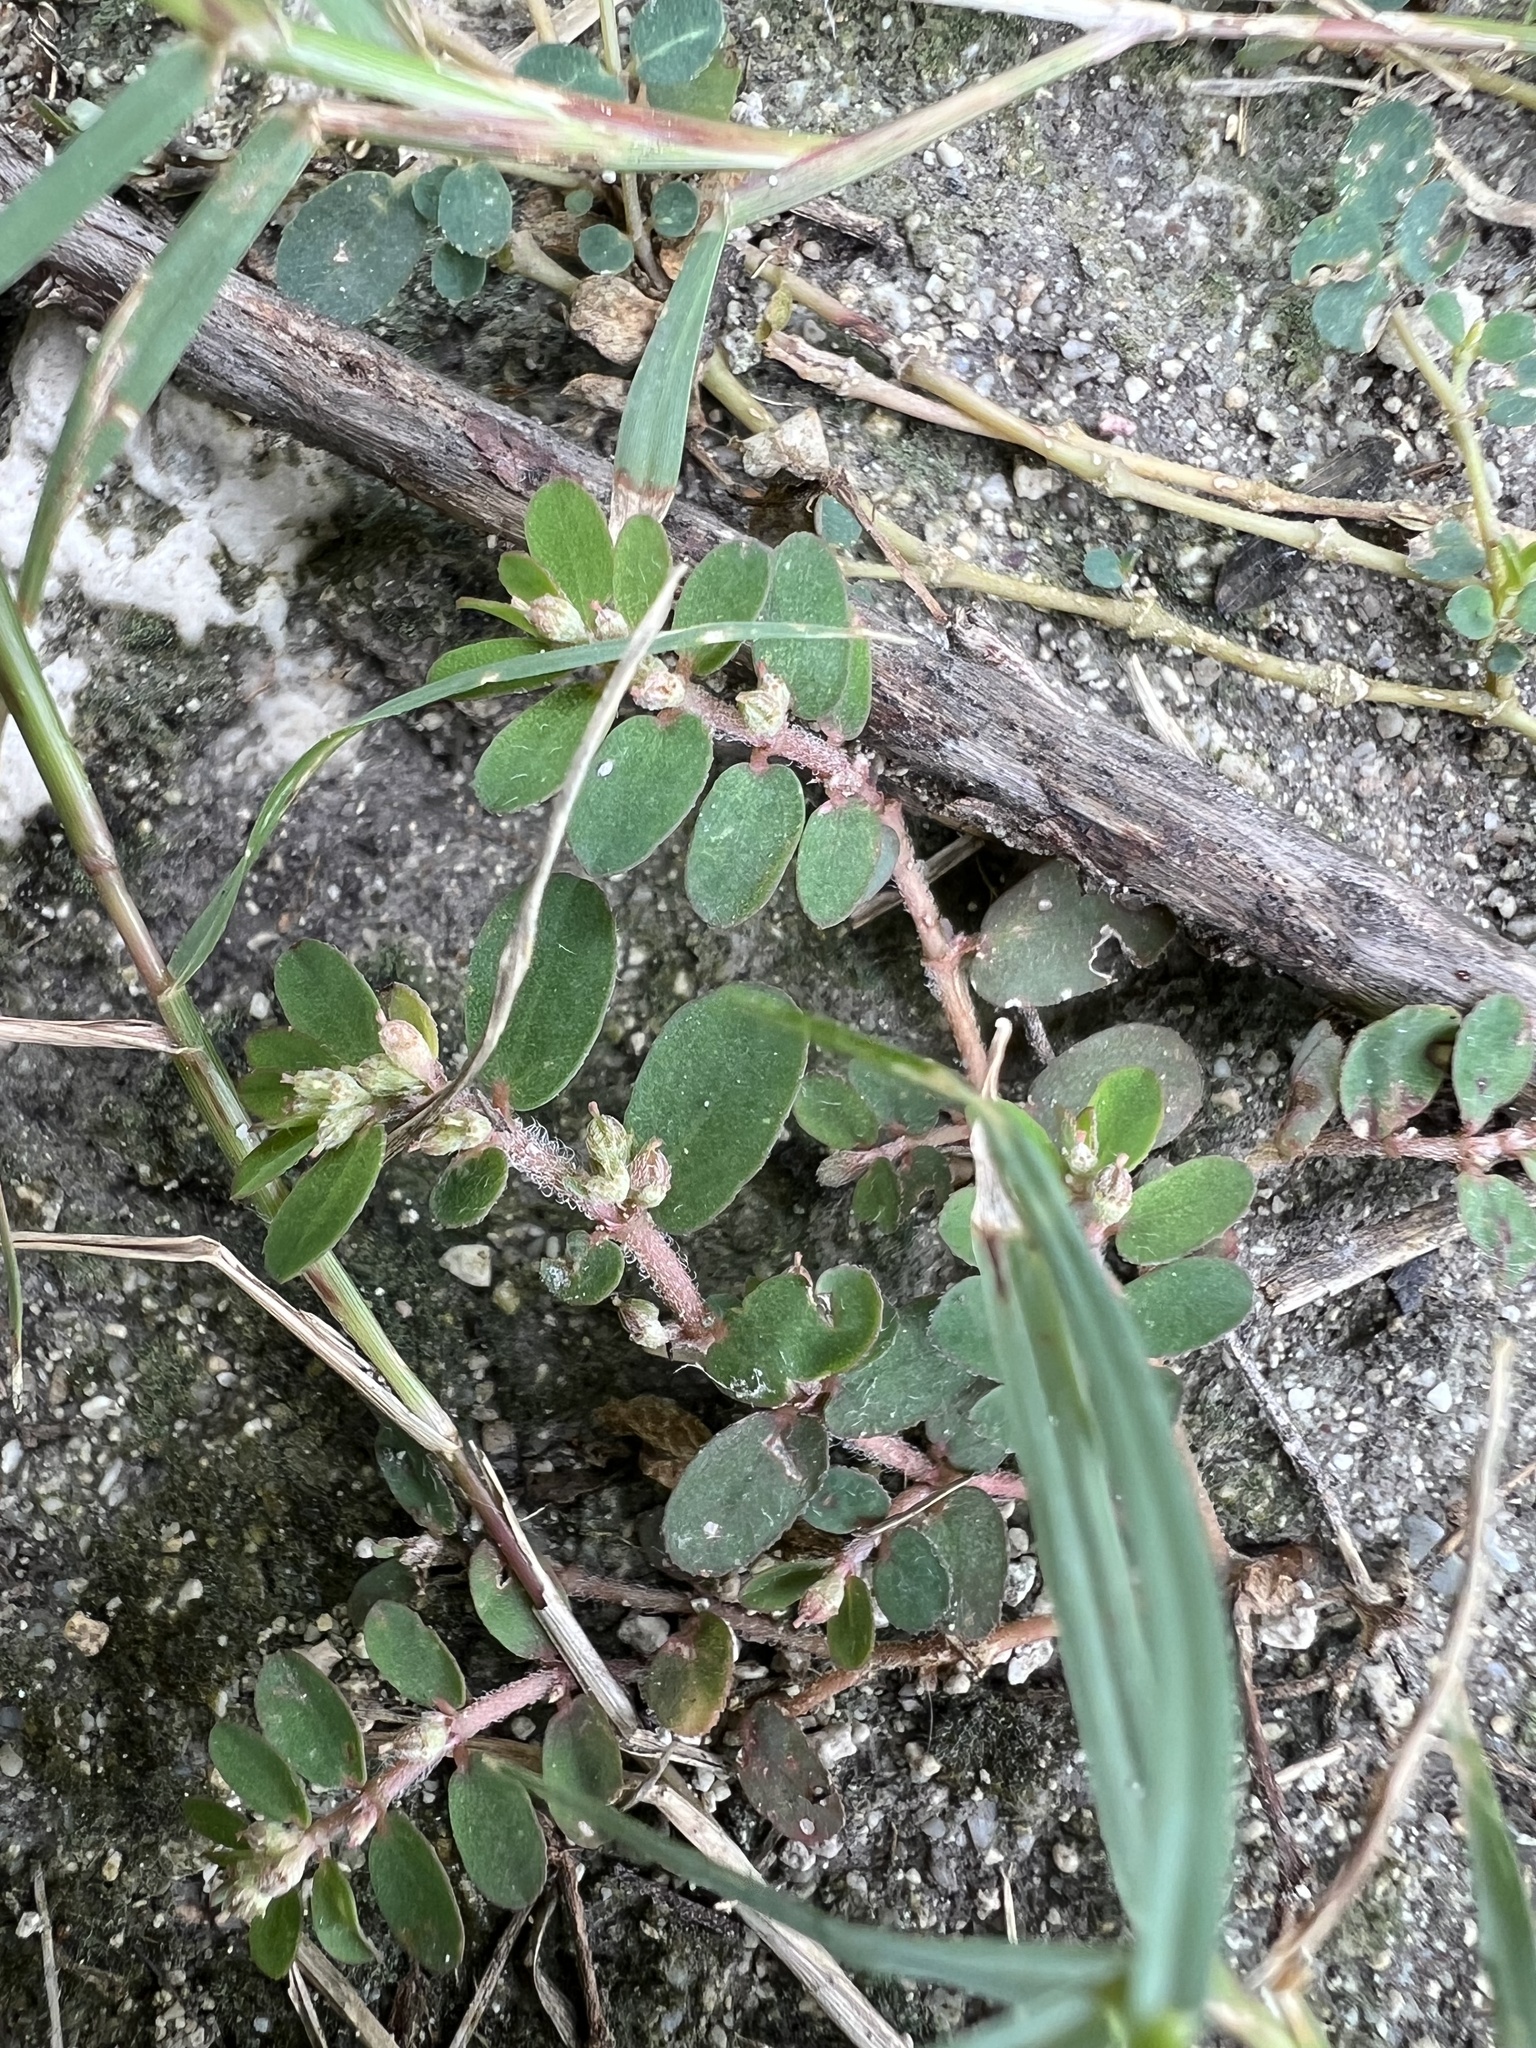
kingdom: Plantae
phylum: Tracheophyta
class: Magnoliopsida
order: Malpighiales
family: Euphorbiaceae
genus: Euphorbia
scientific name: Euphorbia thymifolia
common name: Gulf sandmat
